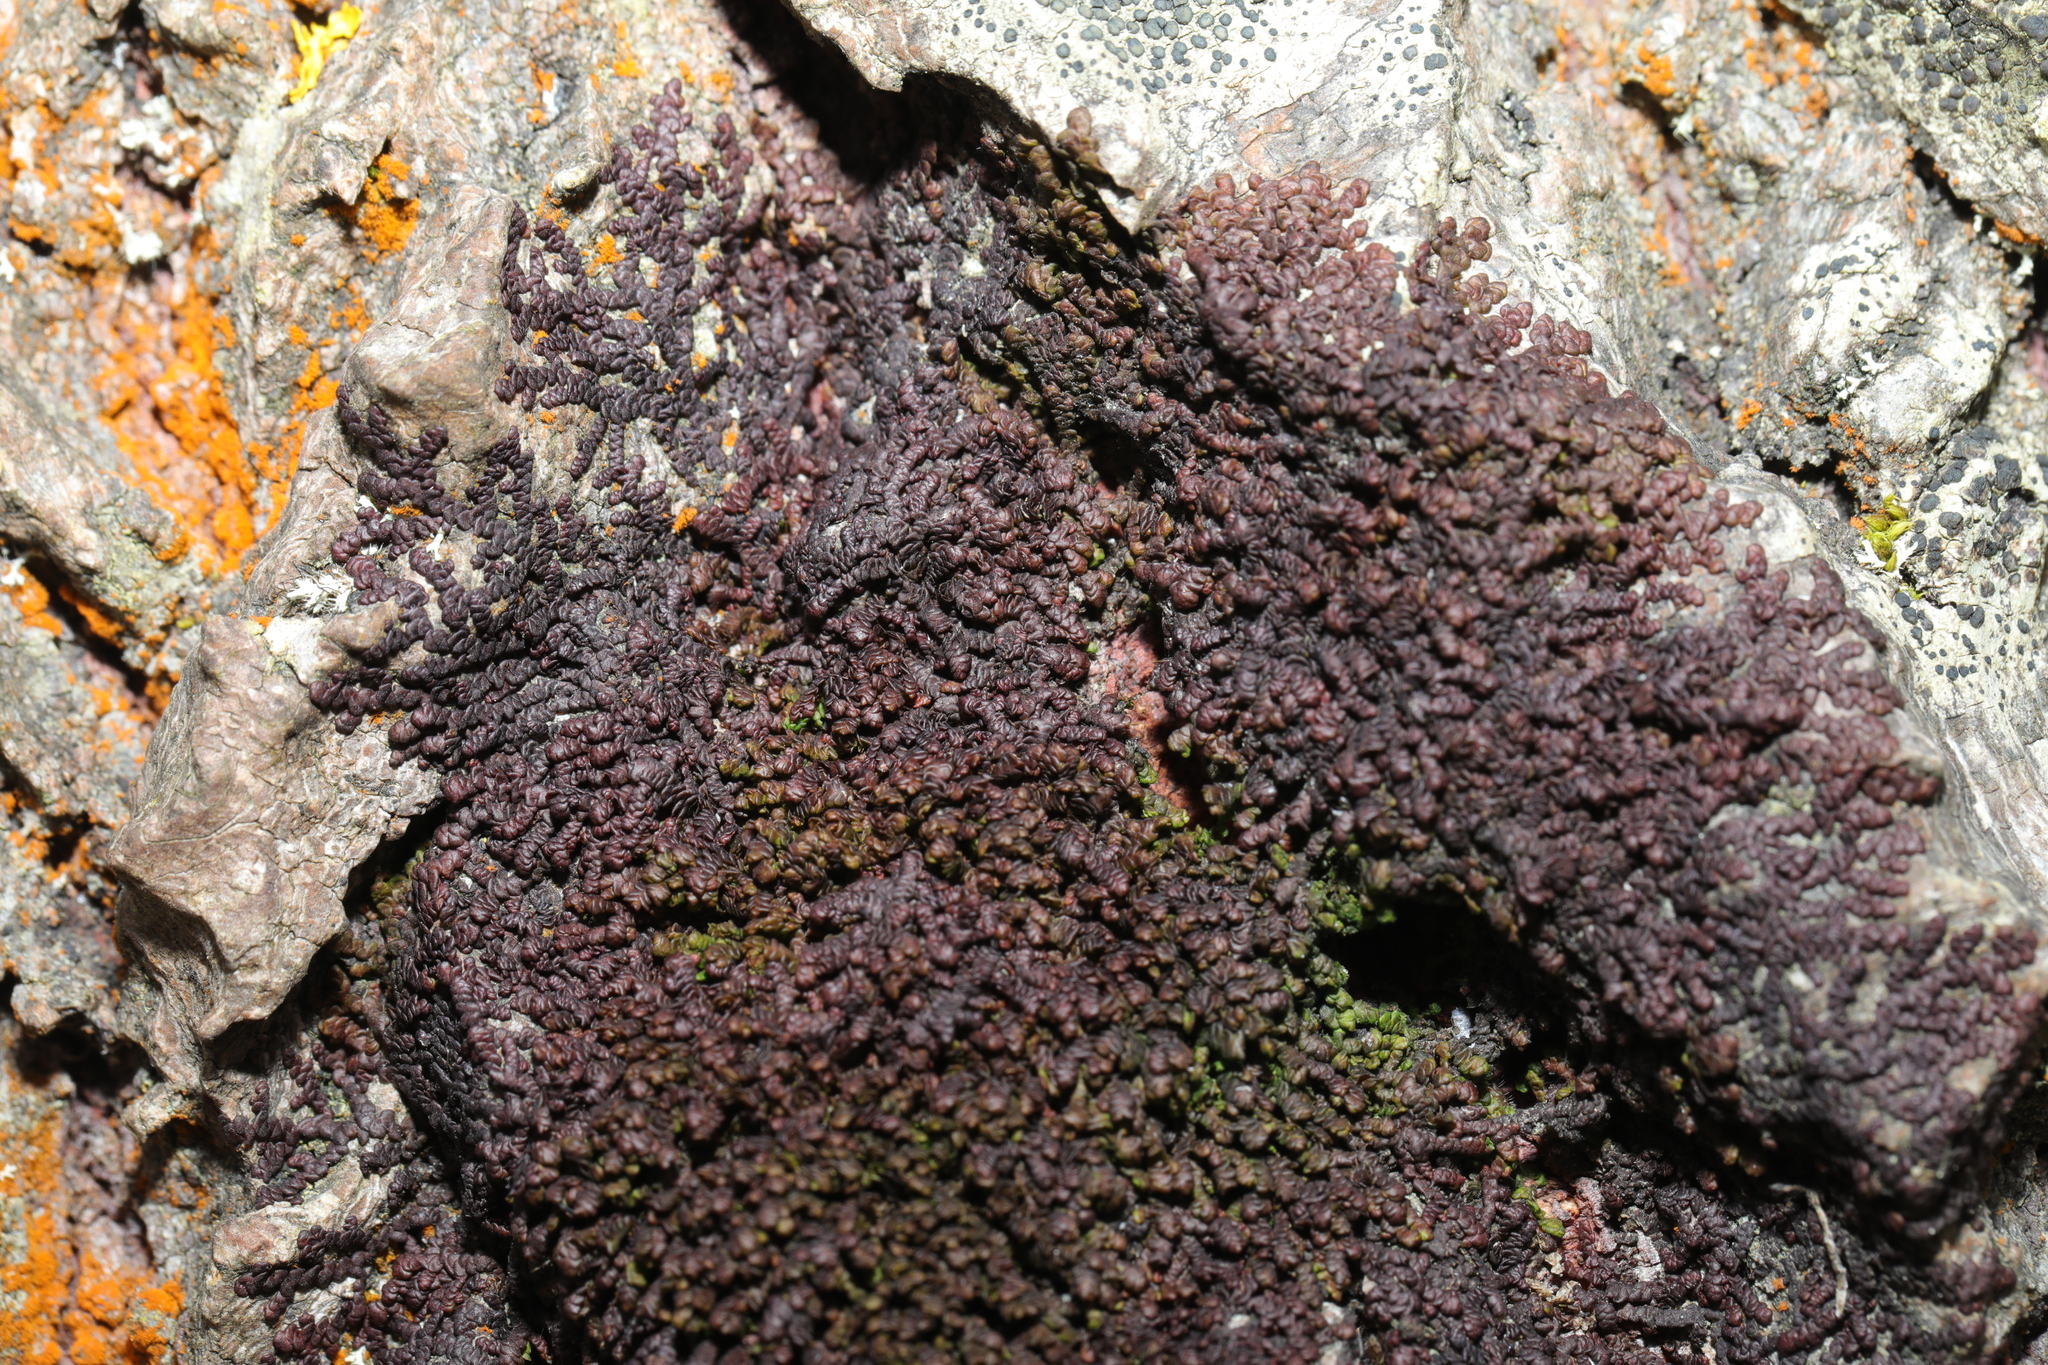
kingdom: Plantae
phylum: Marchantiophyta
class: Jungermanniopsida
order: Porellales
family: Frullaniaceae
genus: Frullania
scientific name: Frullania dilatata
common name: Dilated scalewort
